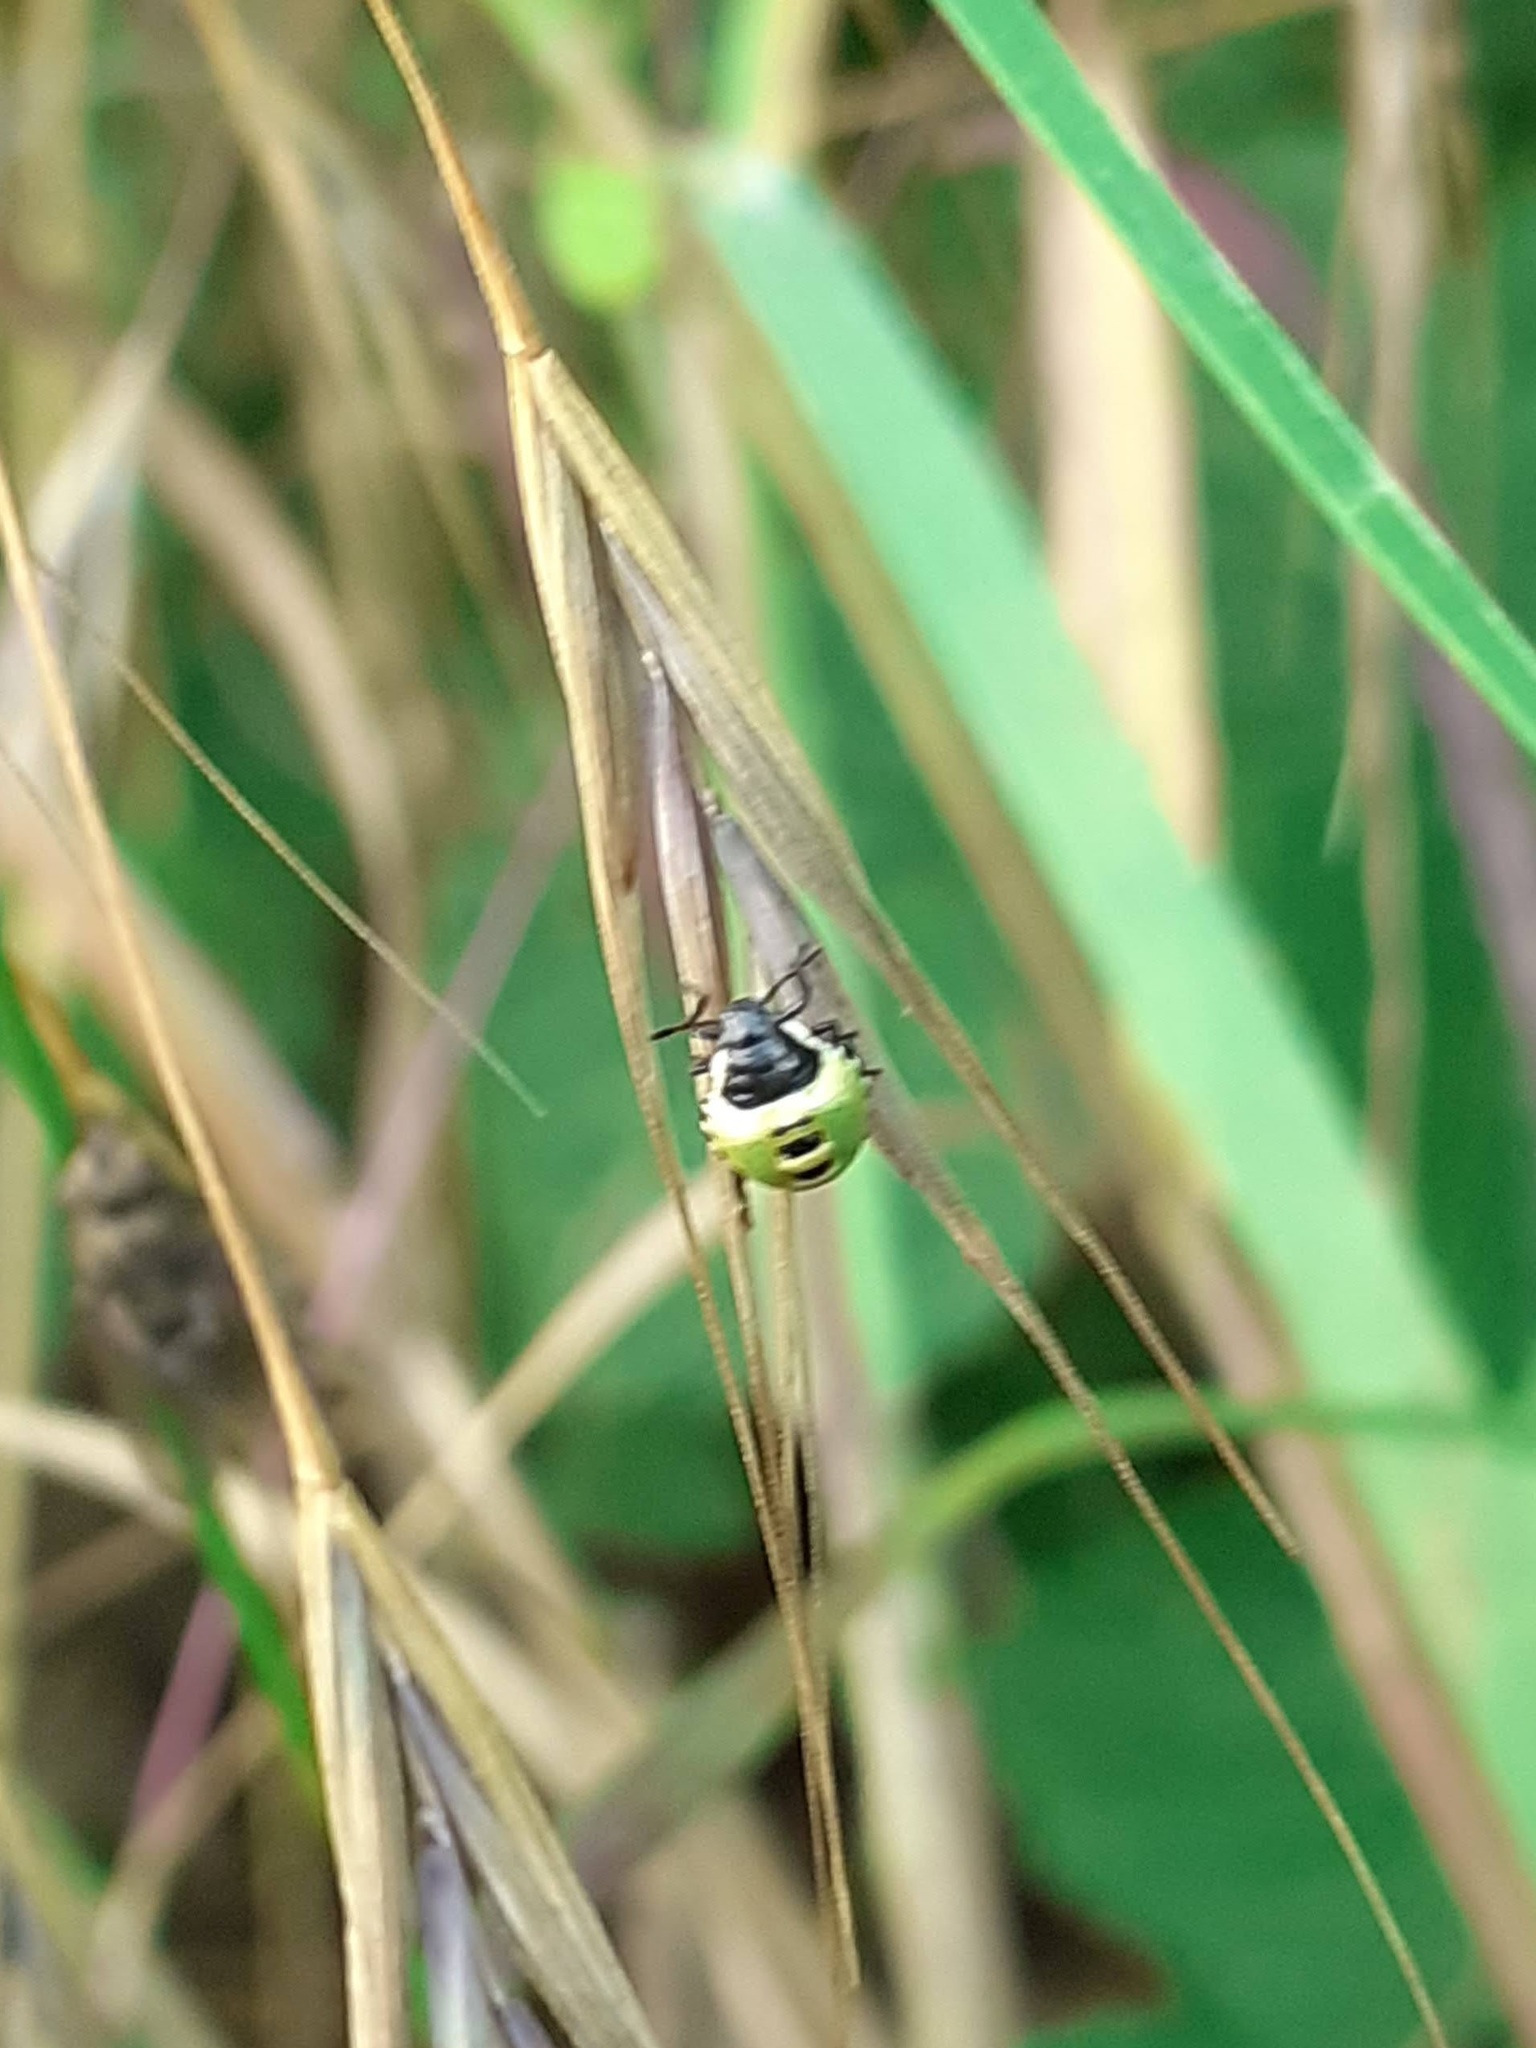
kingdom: Animalia
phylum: Arthropoda
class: Insecta
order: Hemiptera
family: Pentatomidae
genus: Palomena
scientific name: Palomena prasina
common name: Green shieldbug
